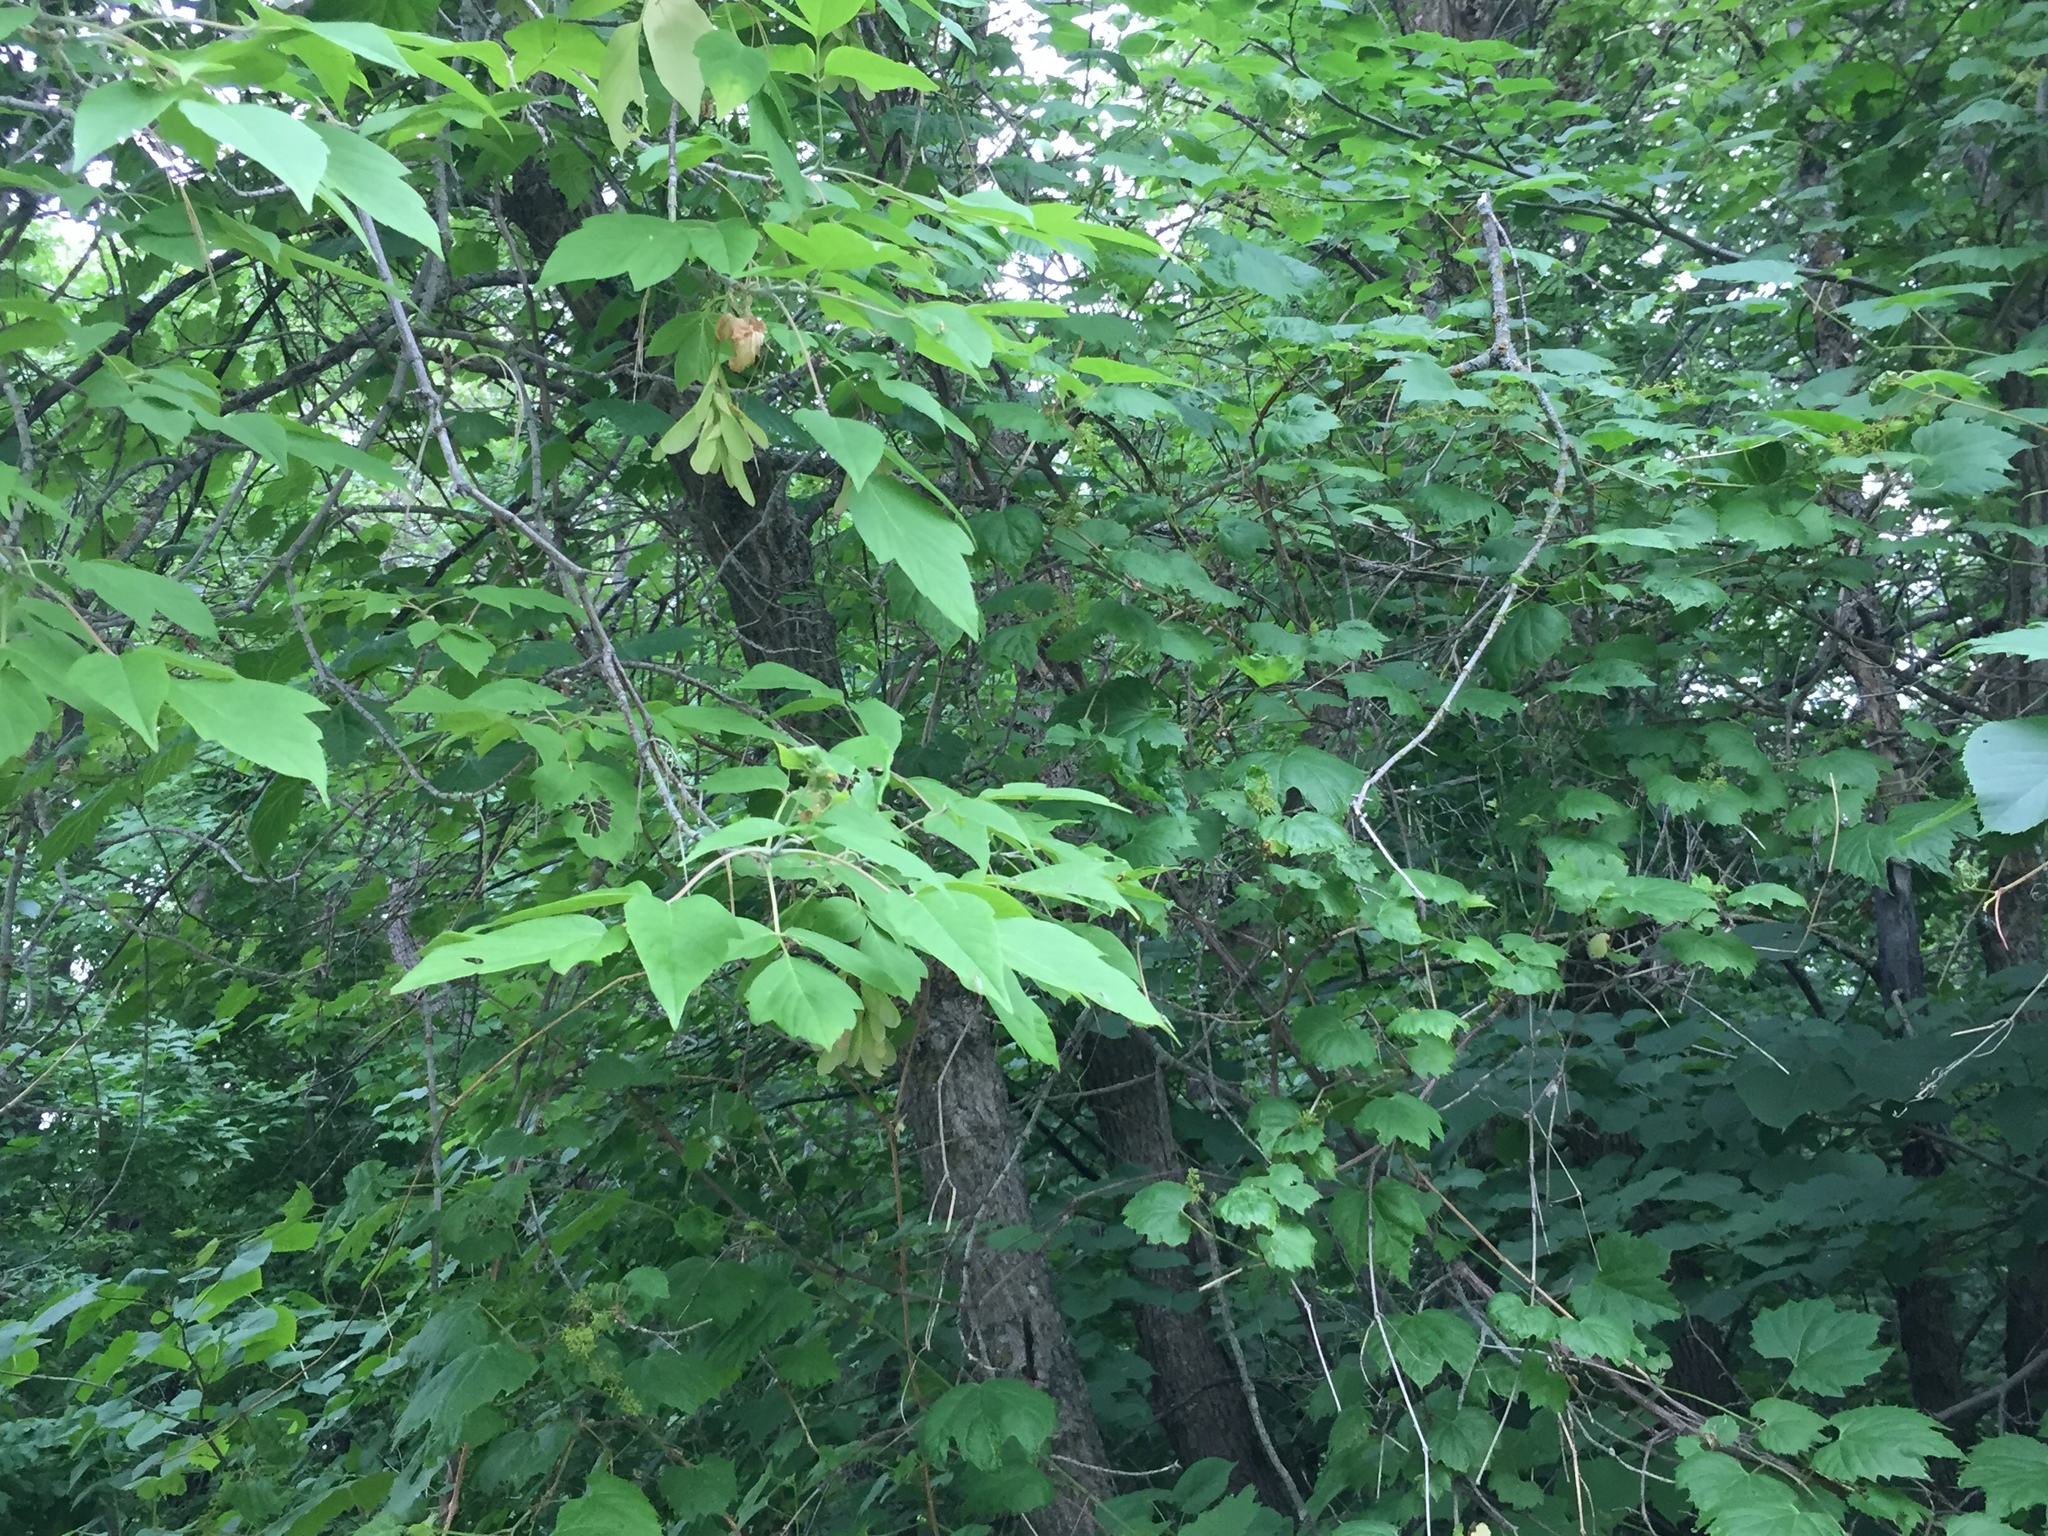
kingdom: Plantae
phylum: Tracheophyta
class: Magnoliopsida
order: Sapindales
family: Sapindaceae
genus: Acer
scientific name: Acer negundo
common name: Ashleaf maple
